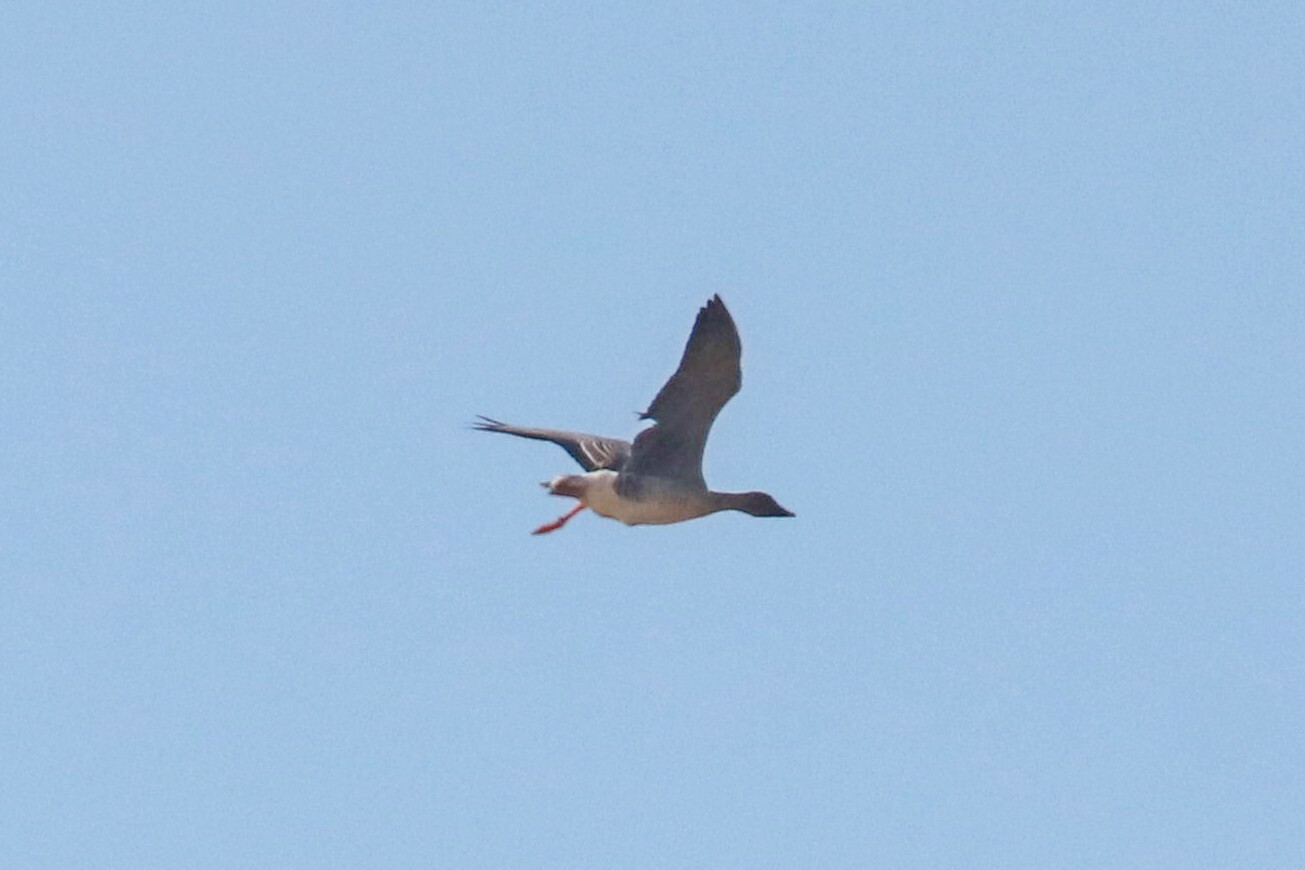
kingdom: Animalia
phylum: Chordata
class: Aves
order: Anseriformes
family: Anatidae
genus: Anser
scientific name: Anser fabalis
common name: Bean goose
